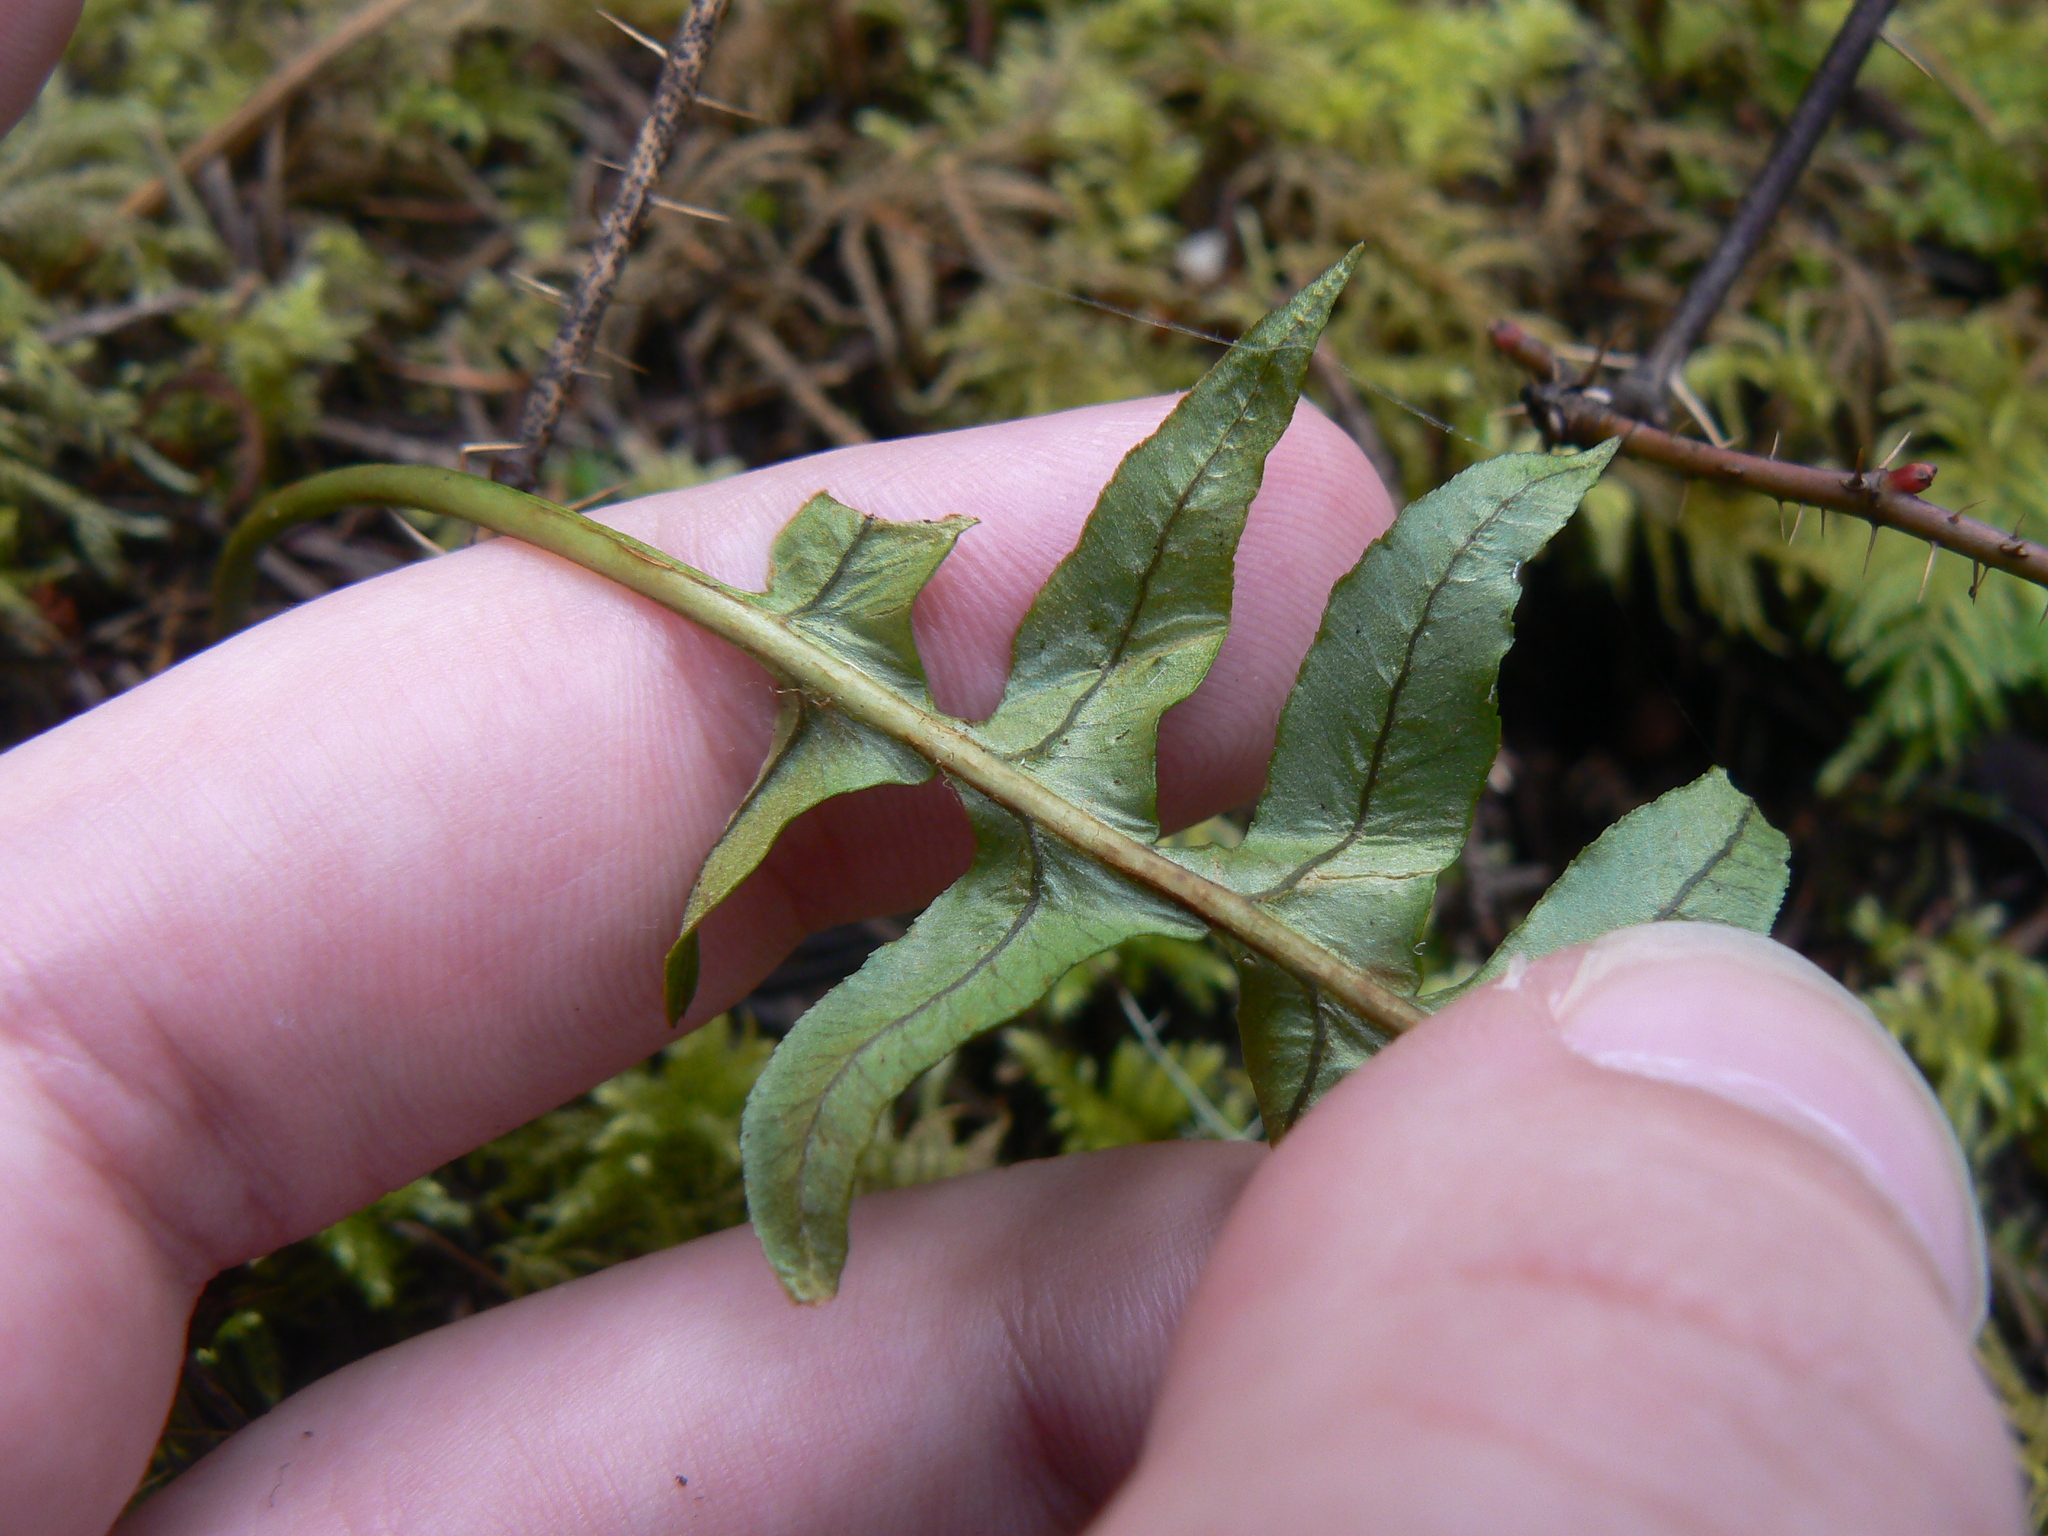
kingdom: Plantae
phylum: Tracheophyta
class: Polypodiopsida
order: Polypodiales
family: Polypodiaceae
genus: Polypodium
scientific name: Polypodium glycyrrhiza
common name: Licorice fern
